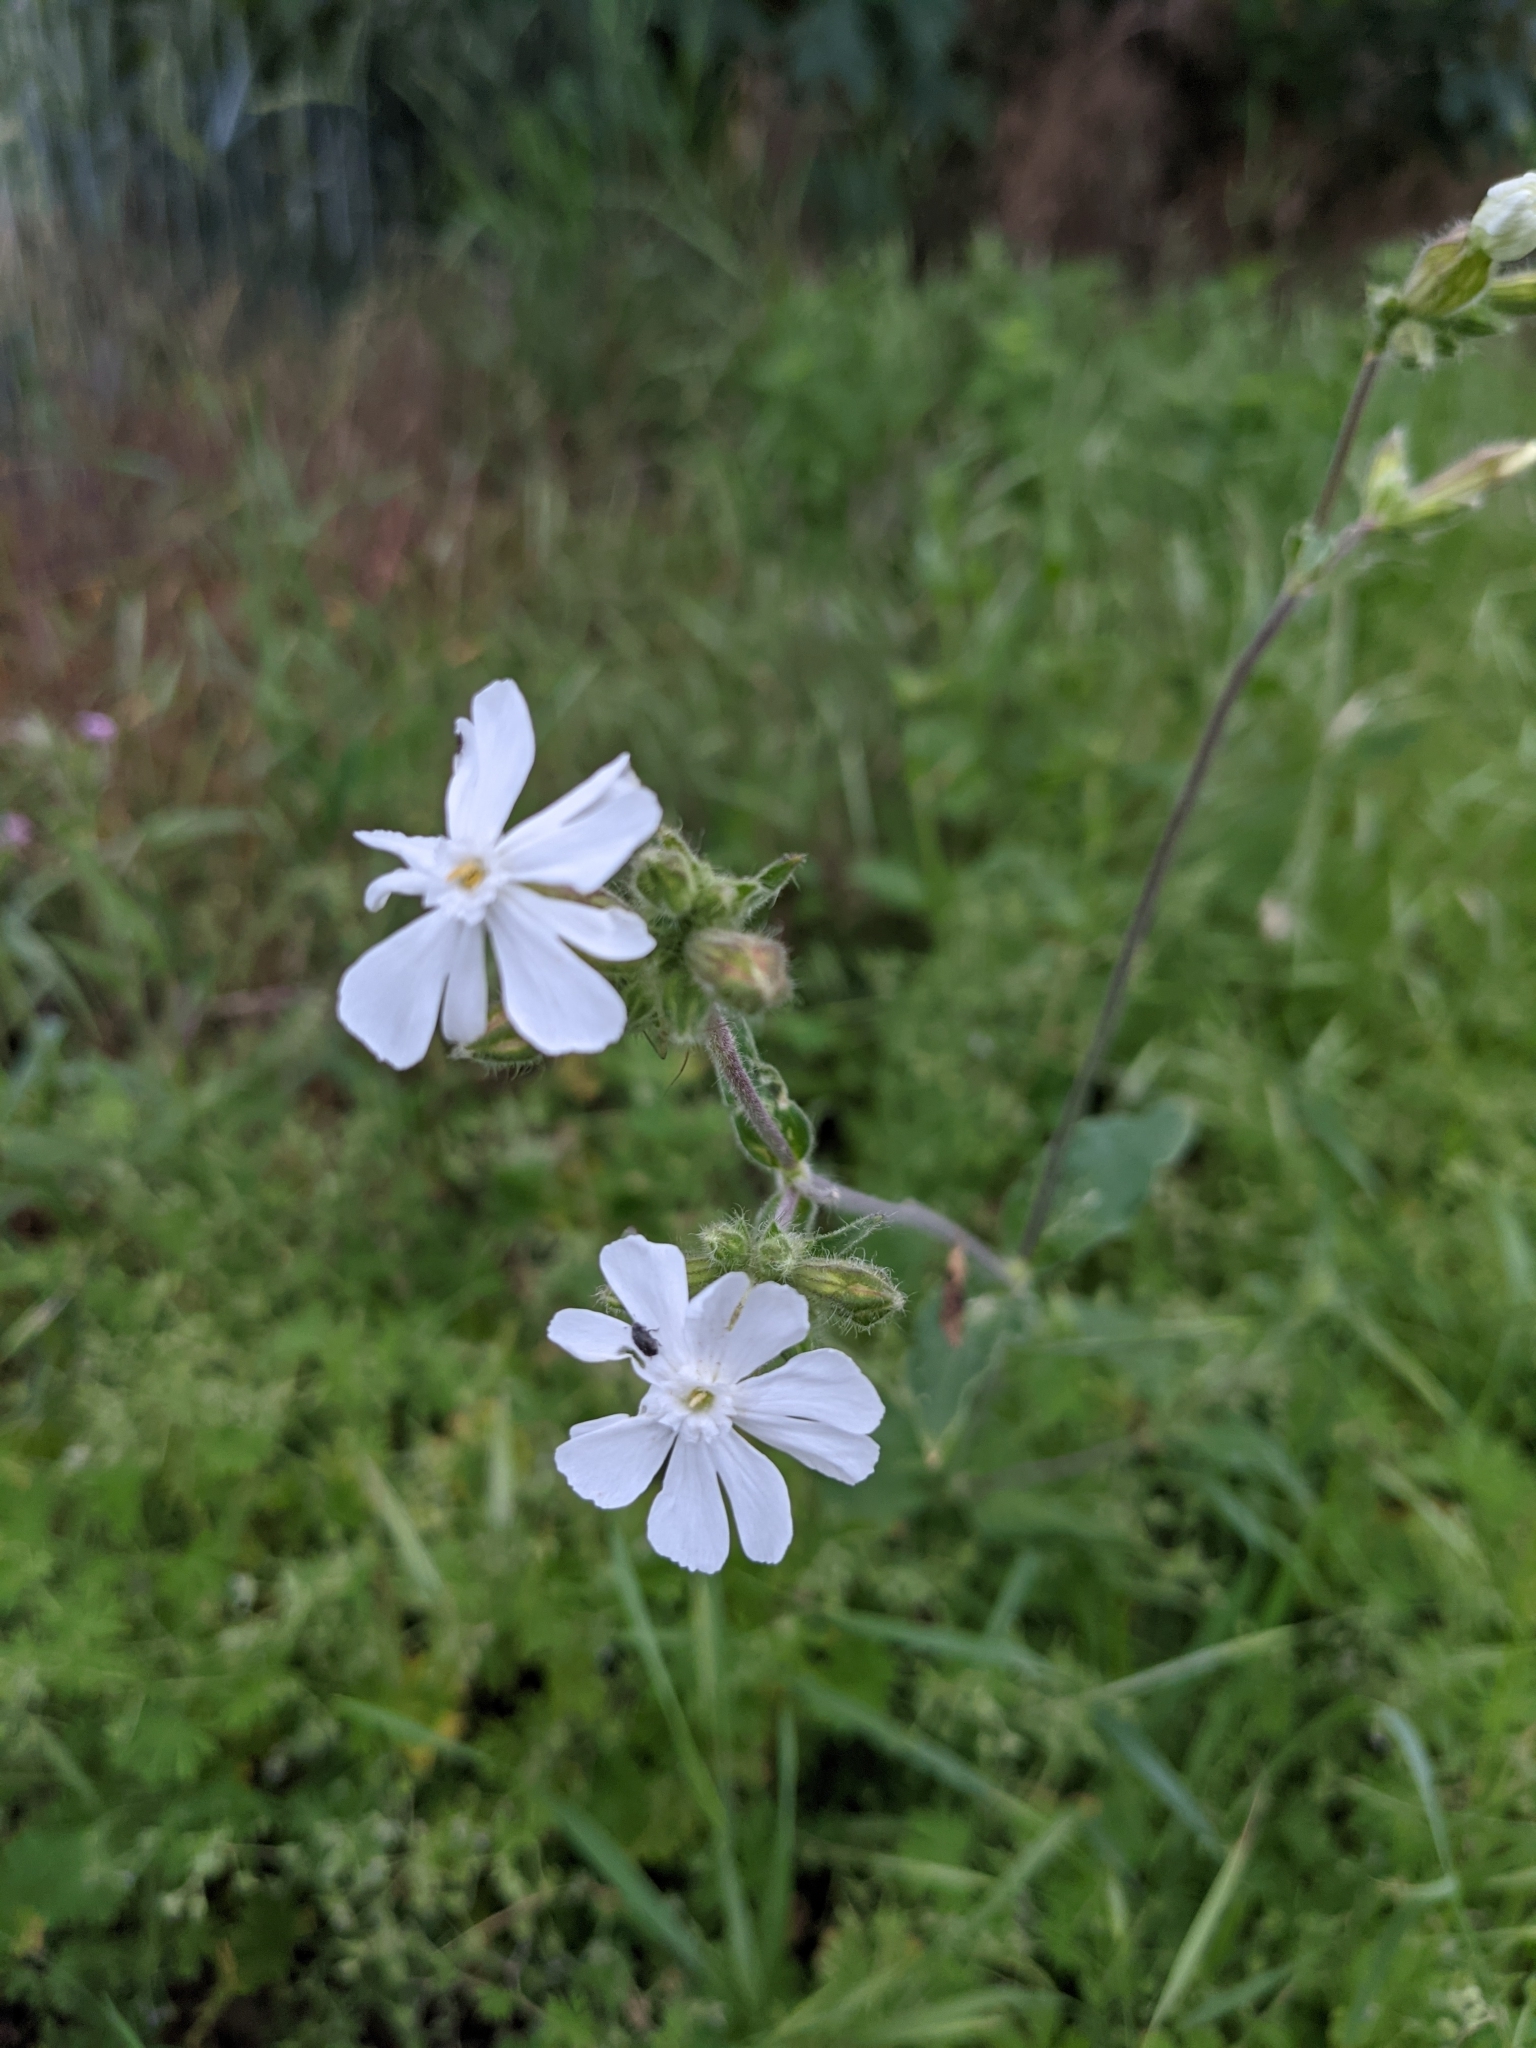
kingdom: Plantae
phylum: Tracheophyta
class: Magnoliopsida
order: Caryophyllales
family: Caryophyllaceae
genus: Silene
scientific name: Silene latifolia
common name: White campion
